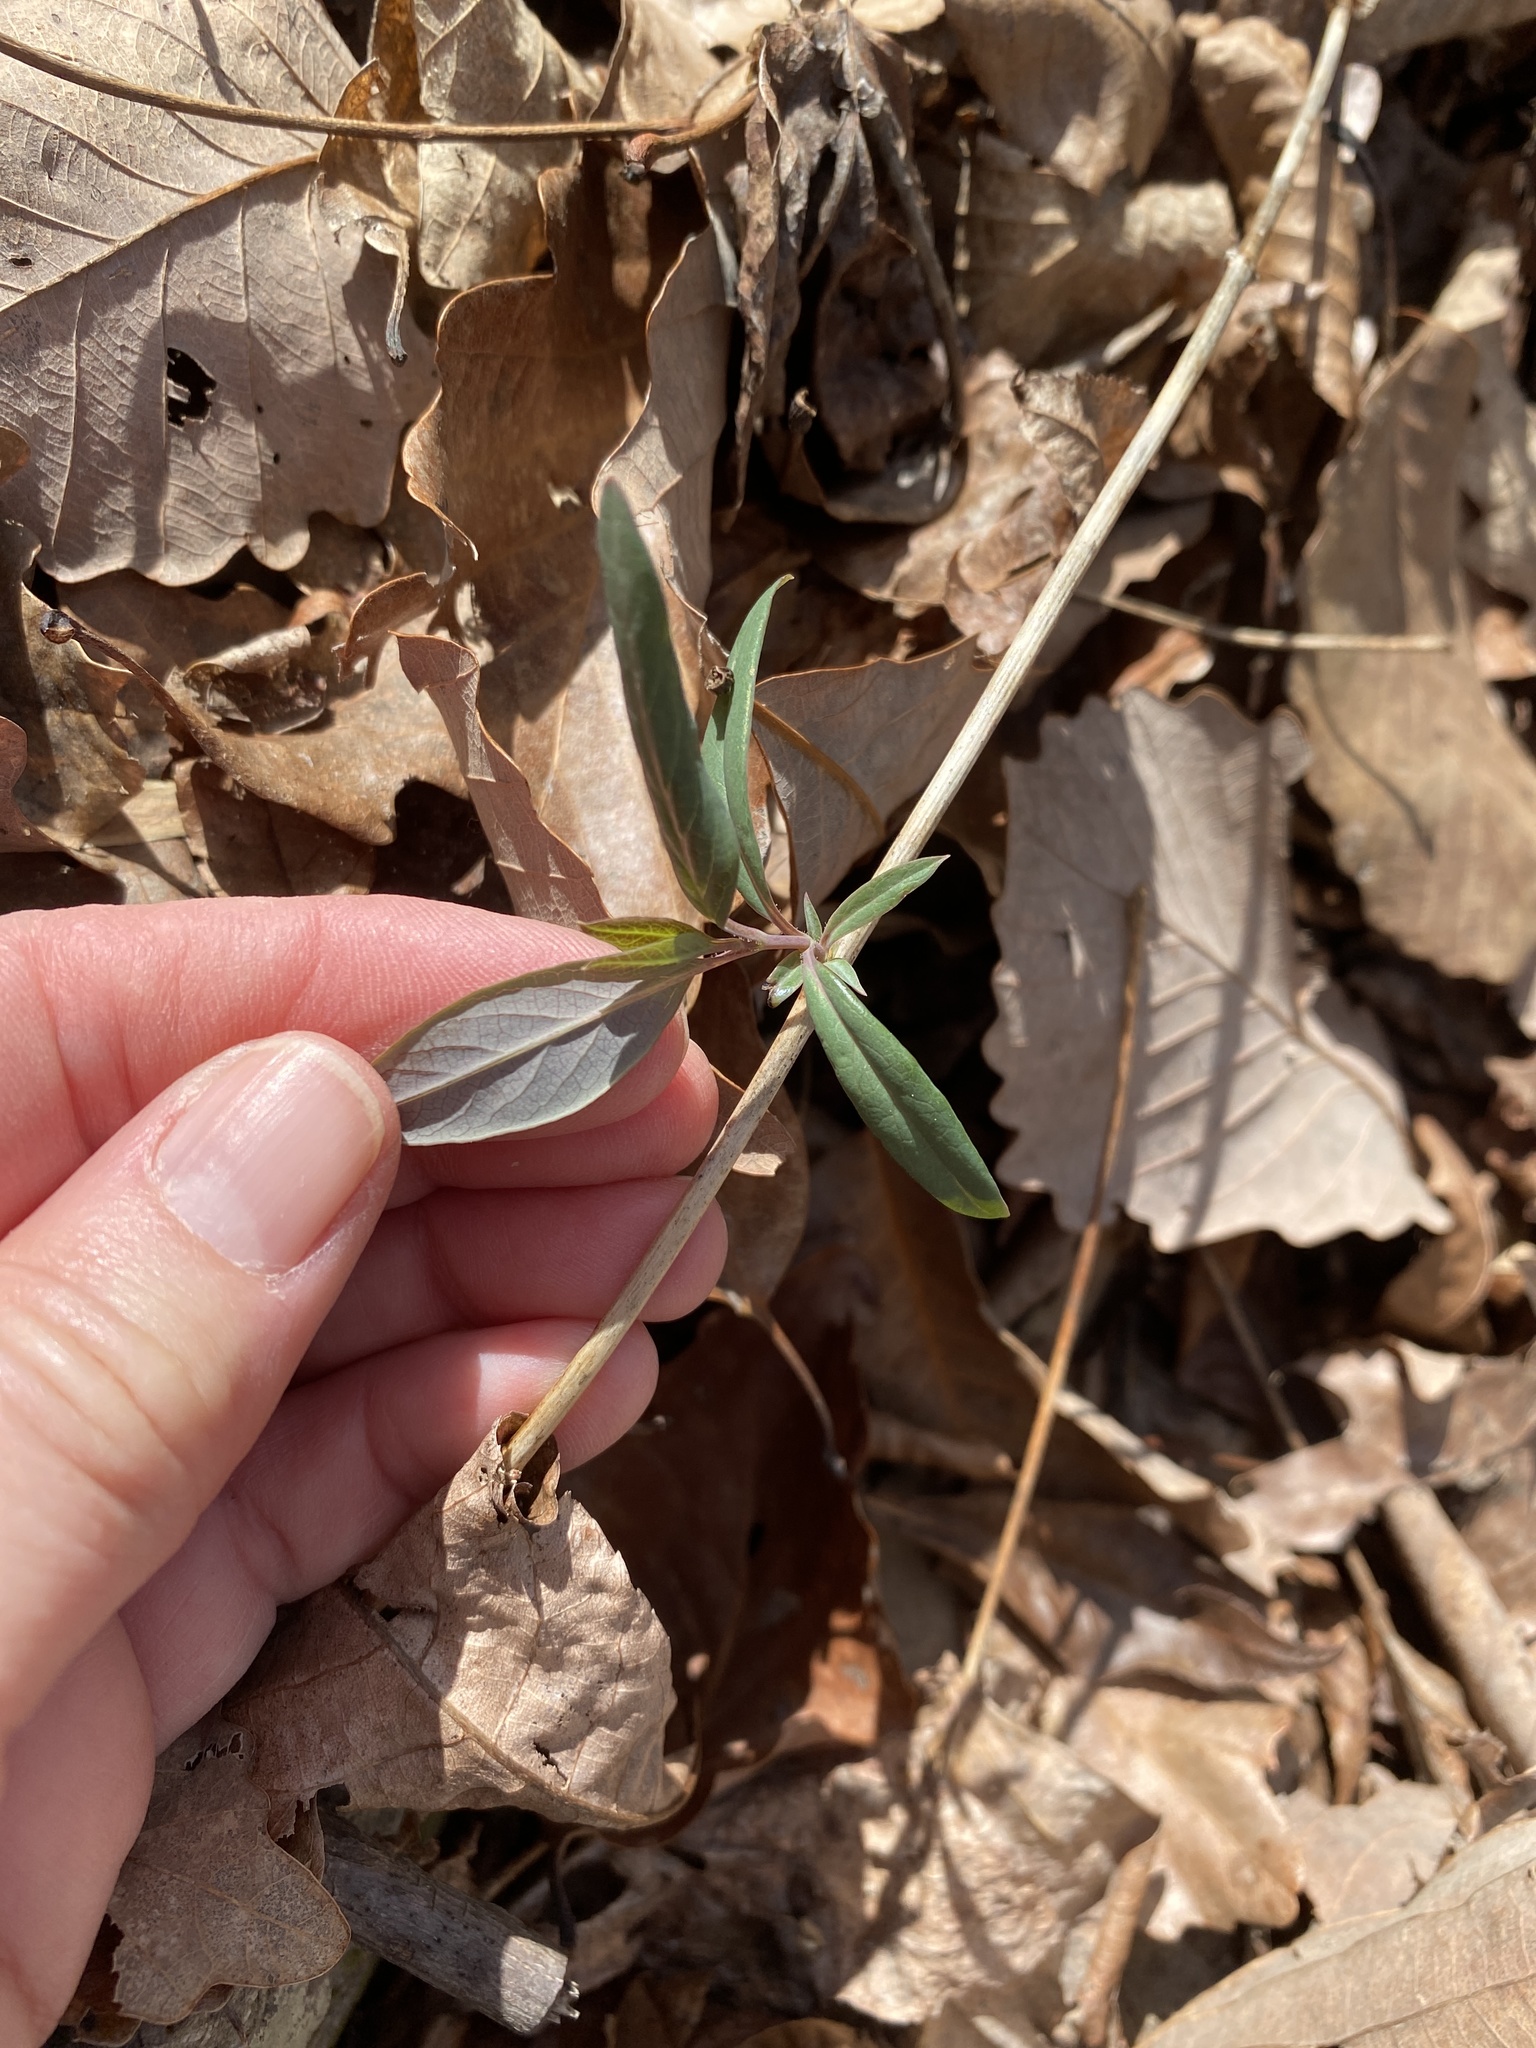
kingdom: Plantae
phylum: Tracheophyta
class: Magnoliopsida
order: Dipsacales
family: Caprifoliaceae
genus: Lonicera
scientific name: Lonicera sempervirens
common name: Coral honeysuckle
